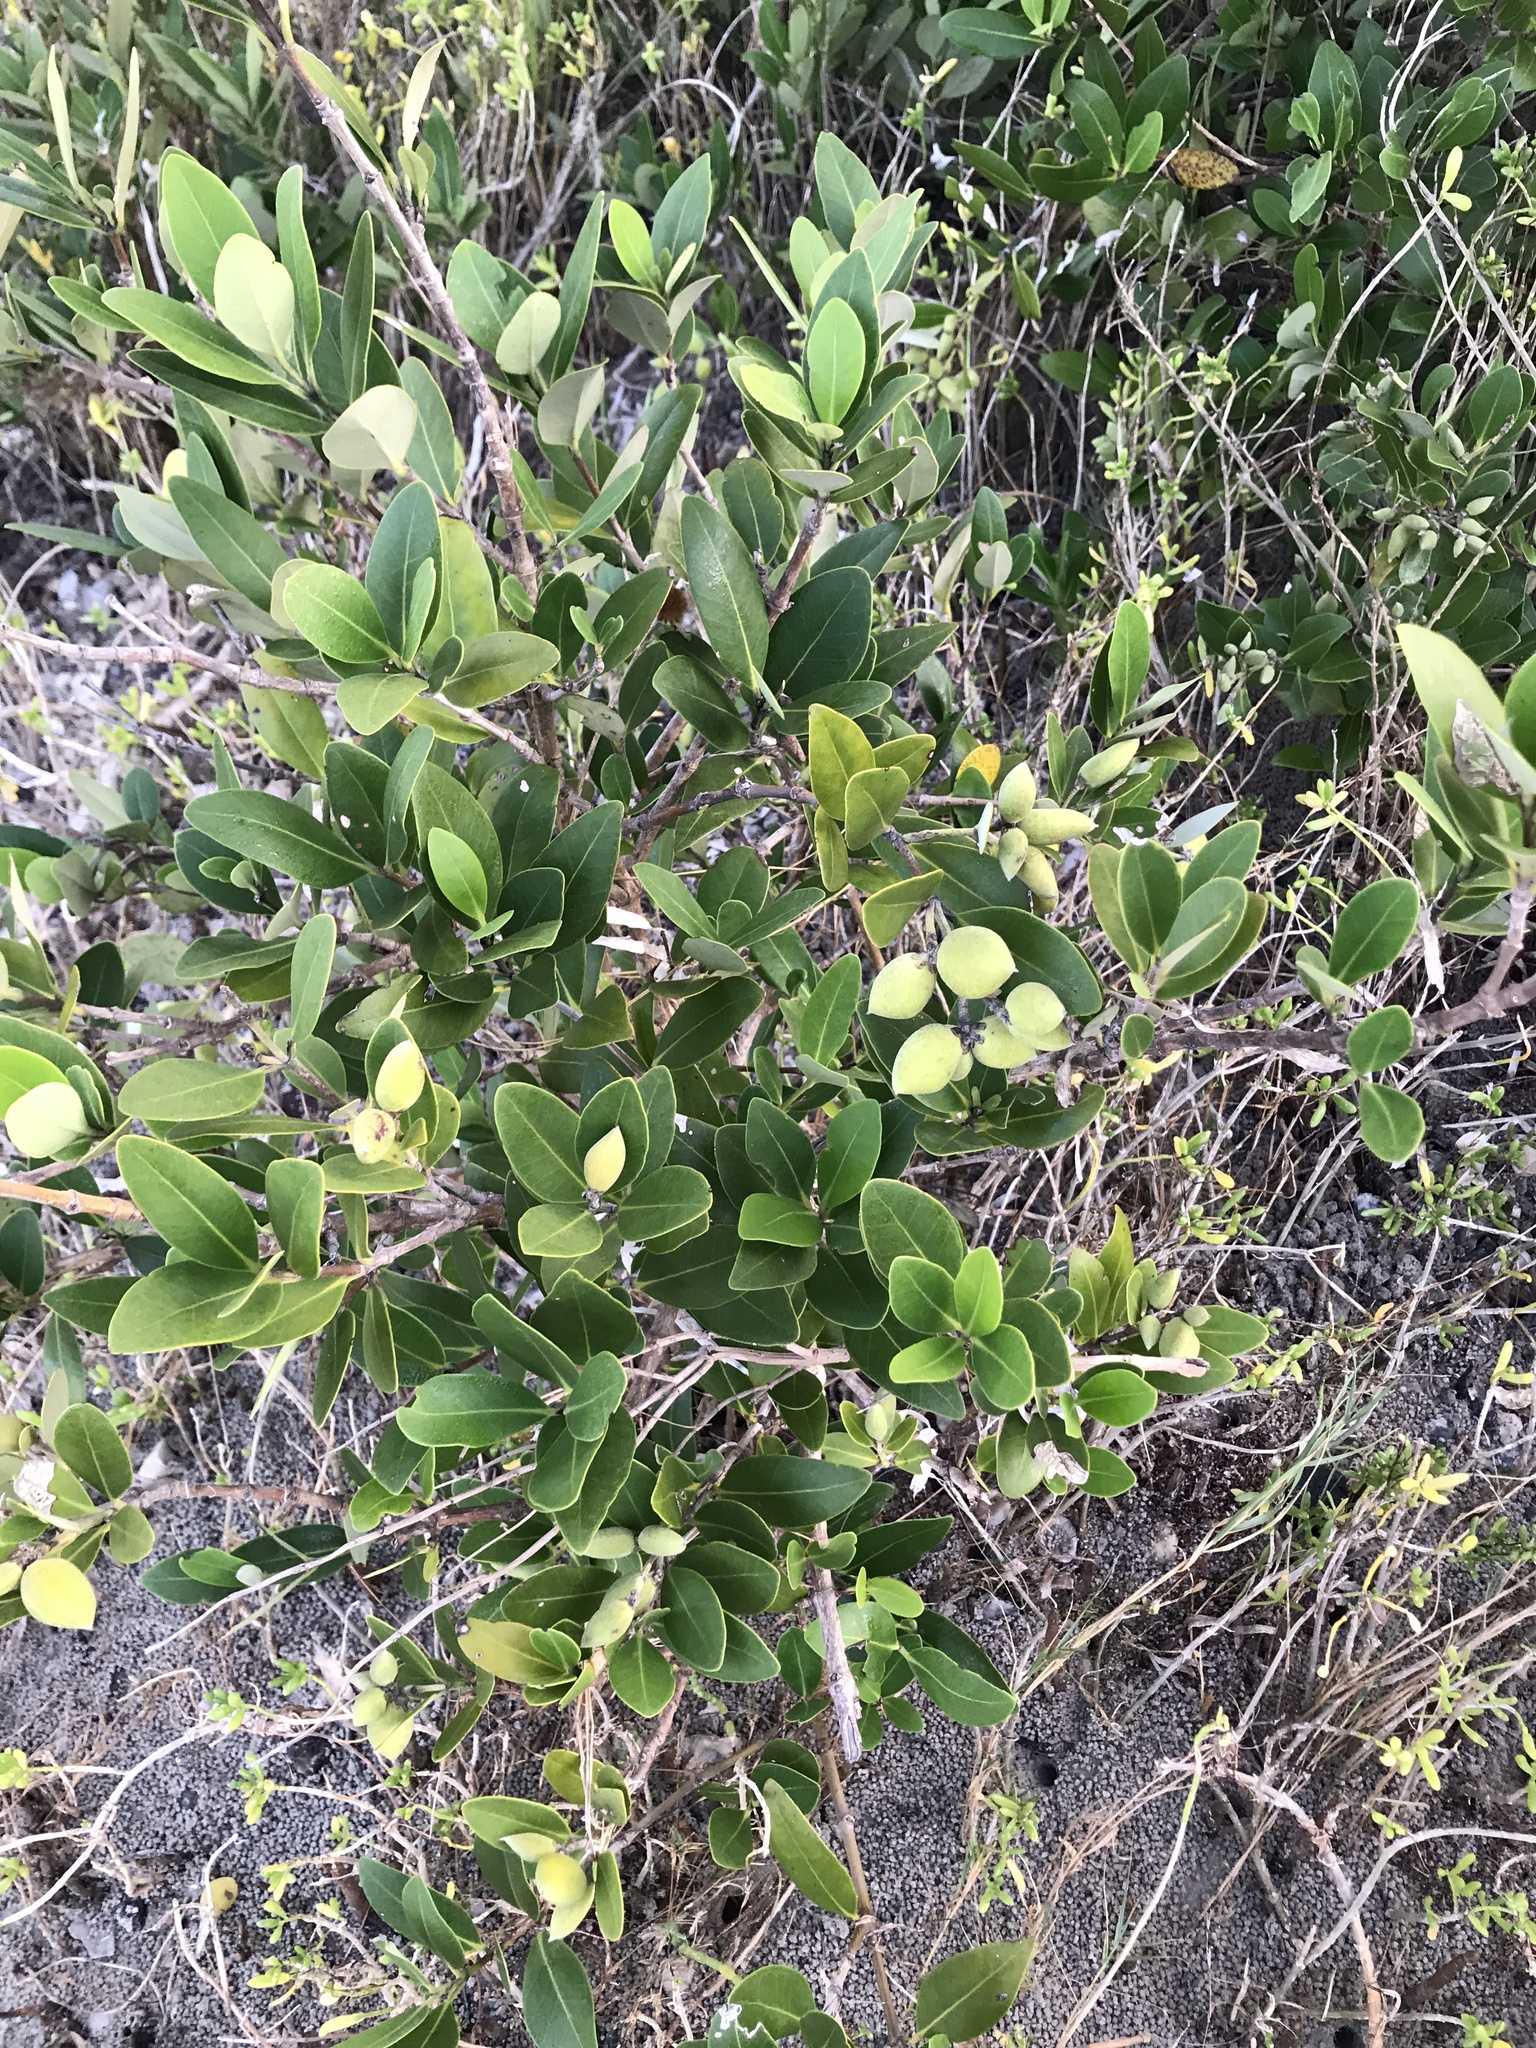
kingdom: Plantae
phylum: Tracheophyta
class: Magnoliopsida
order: Lamiales
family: Acanthaceae
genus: Avicennia
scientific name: Avicennia germinans
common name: Black mangrove
